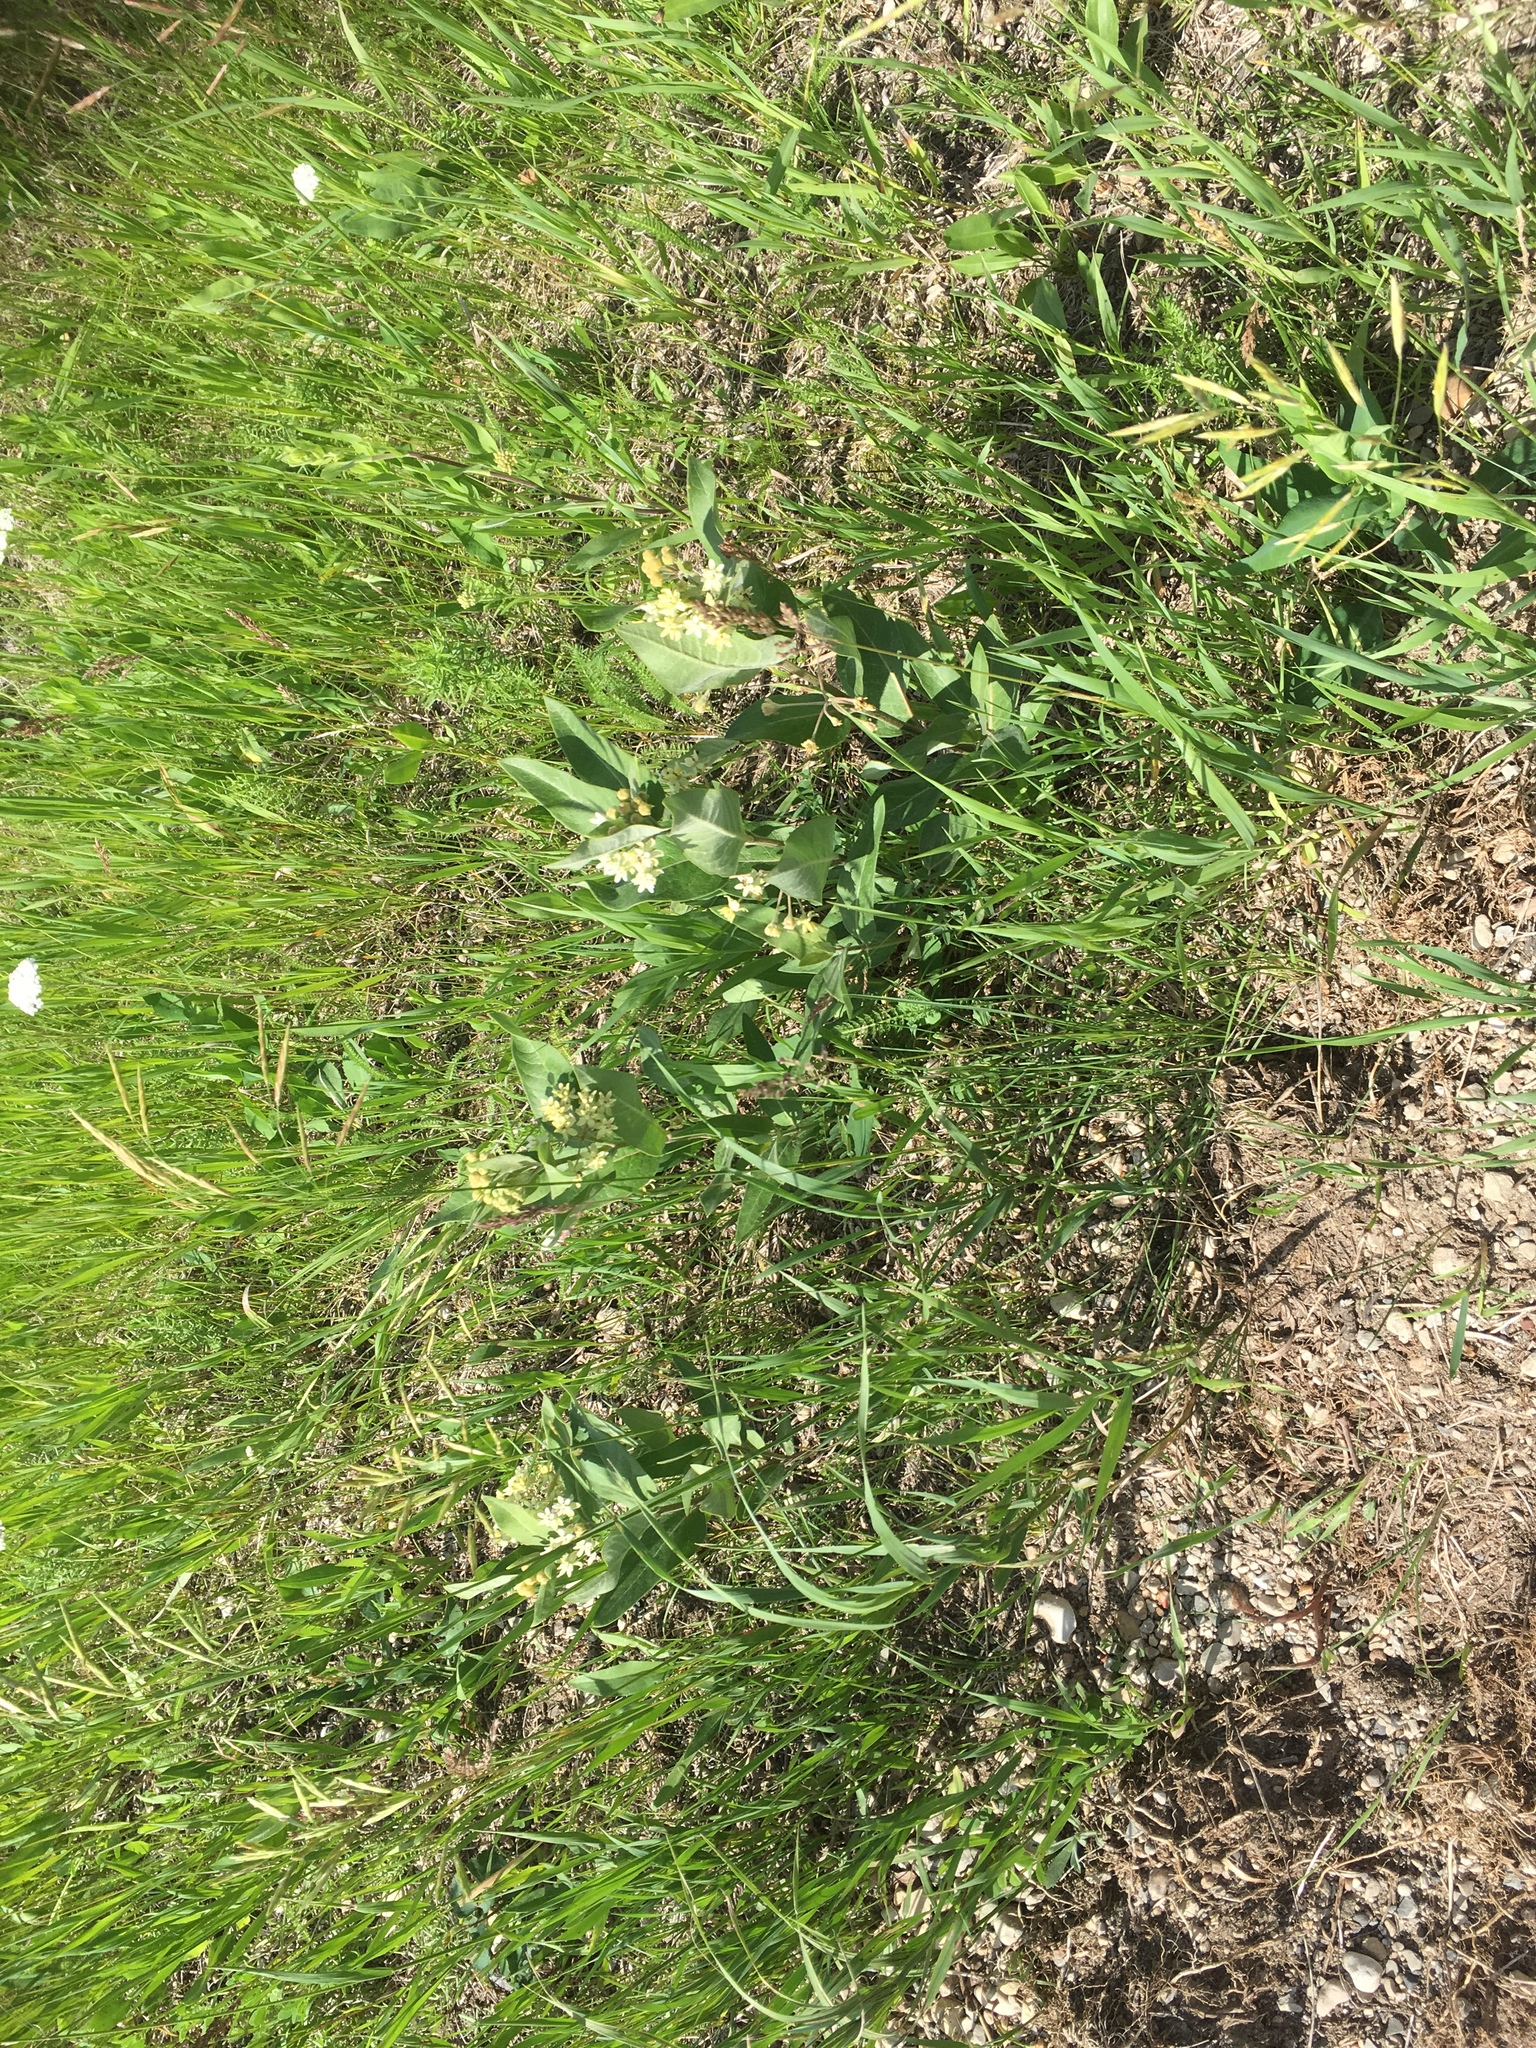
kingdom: Plantae
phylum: Tracheophyta
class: Magnoliopsida
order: Gentianales
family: Apocynaceae
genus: Asclepias
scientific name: Asclepias ovalifolia
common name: Dwarf milkweed
